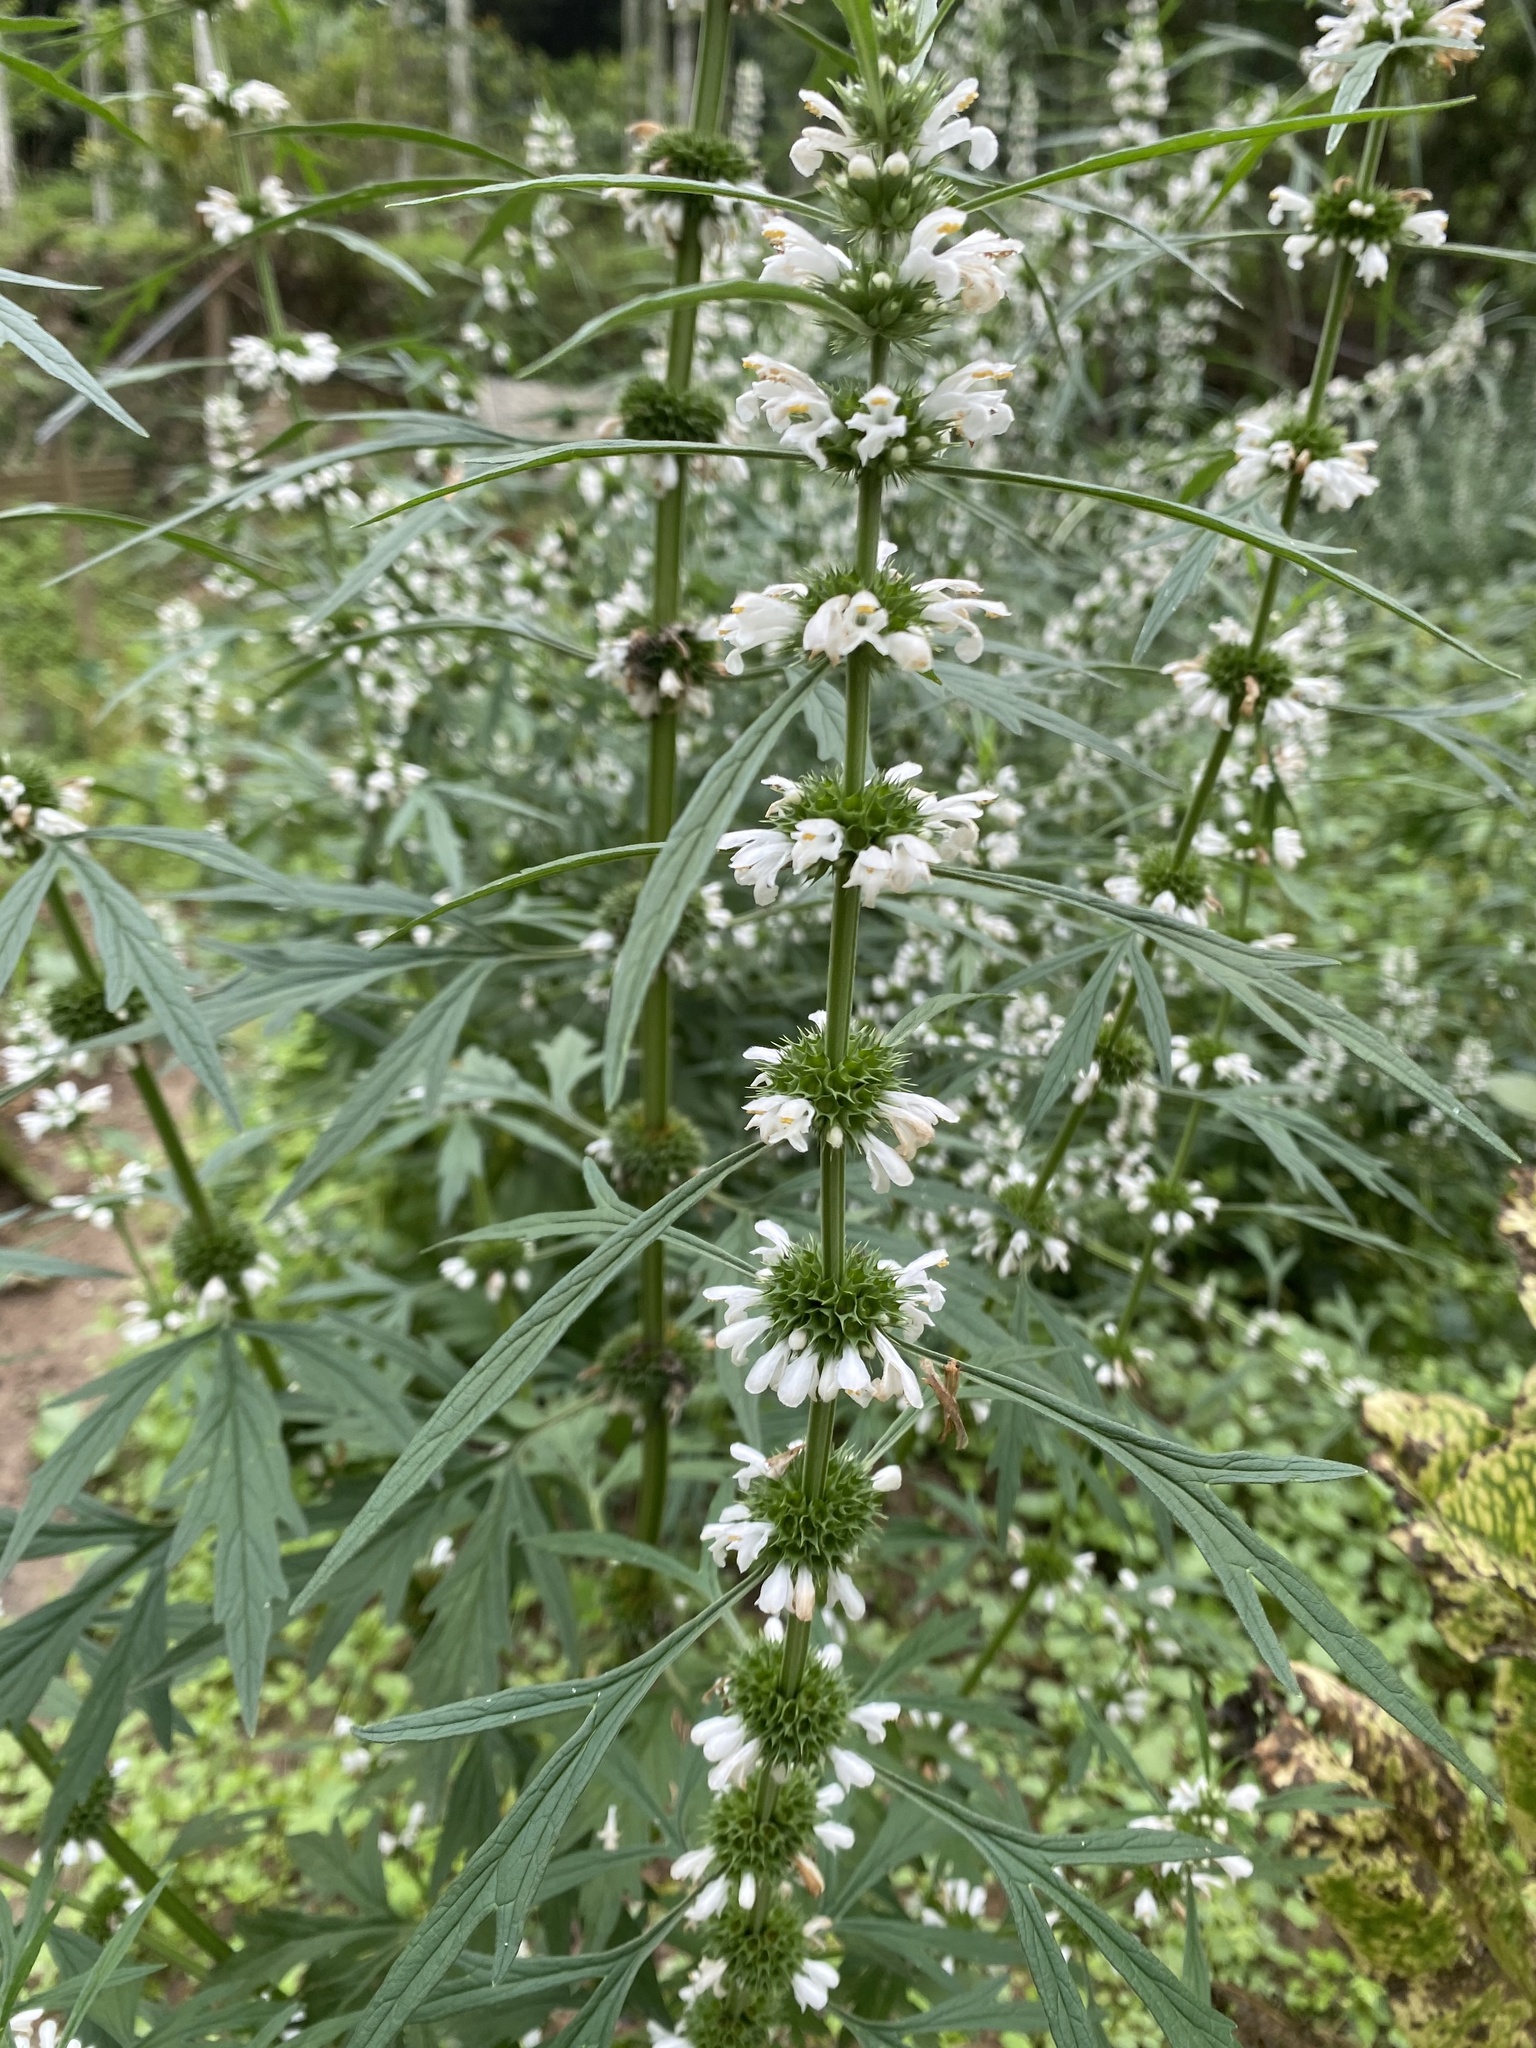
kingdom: Plantae
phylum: Tracheophyta
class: Magnoliopsida
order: Lamiales
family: Lamiaceae
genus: Leonurus
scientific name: Leonurus japonicus
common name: Honeyweed
